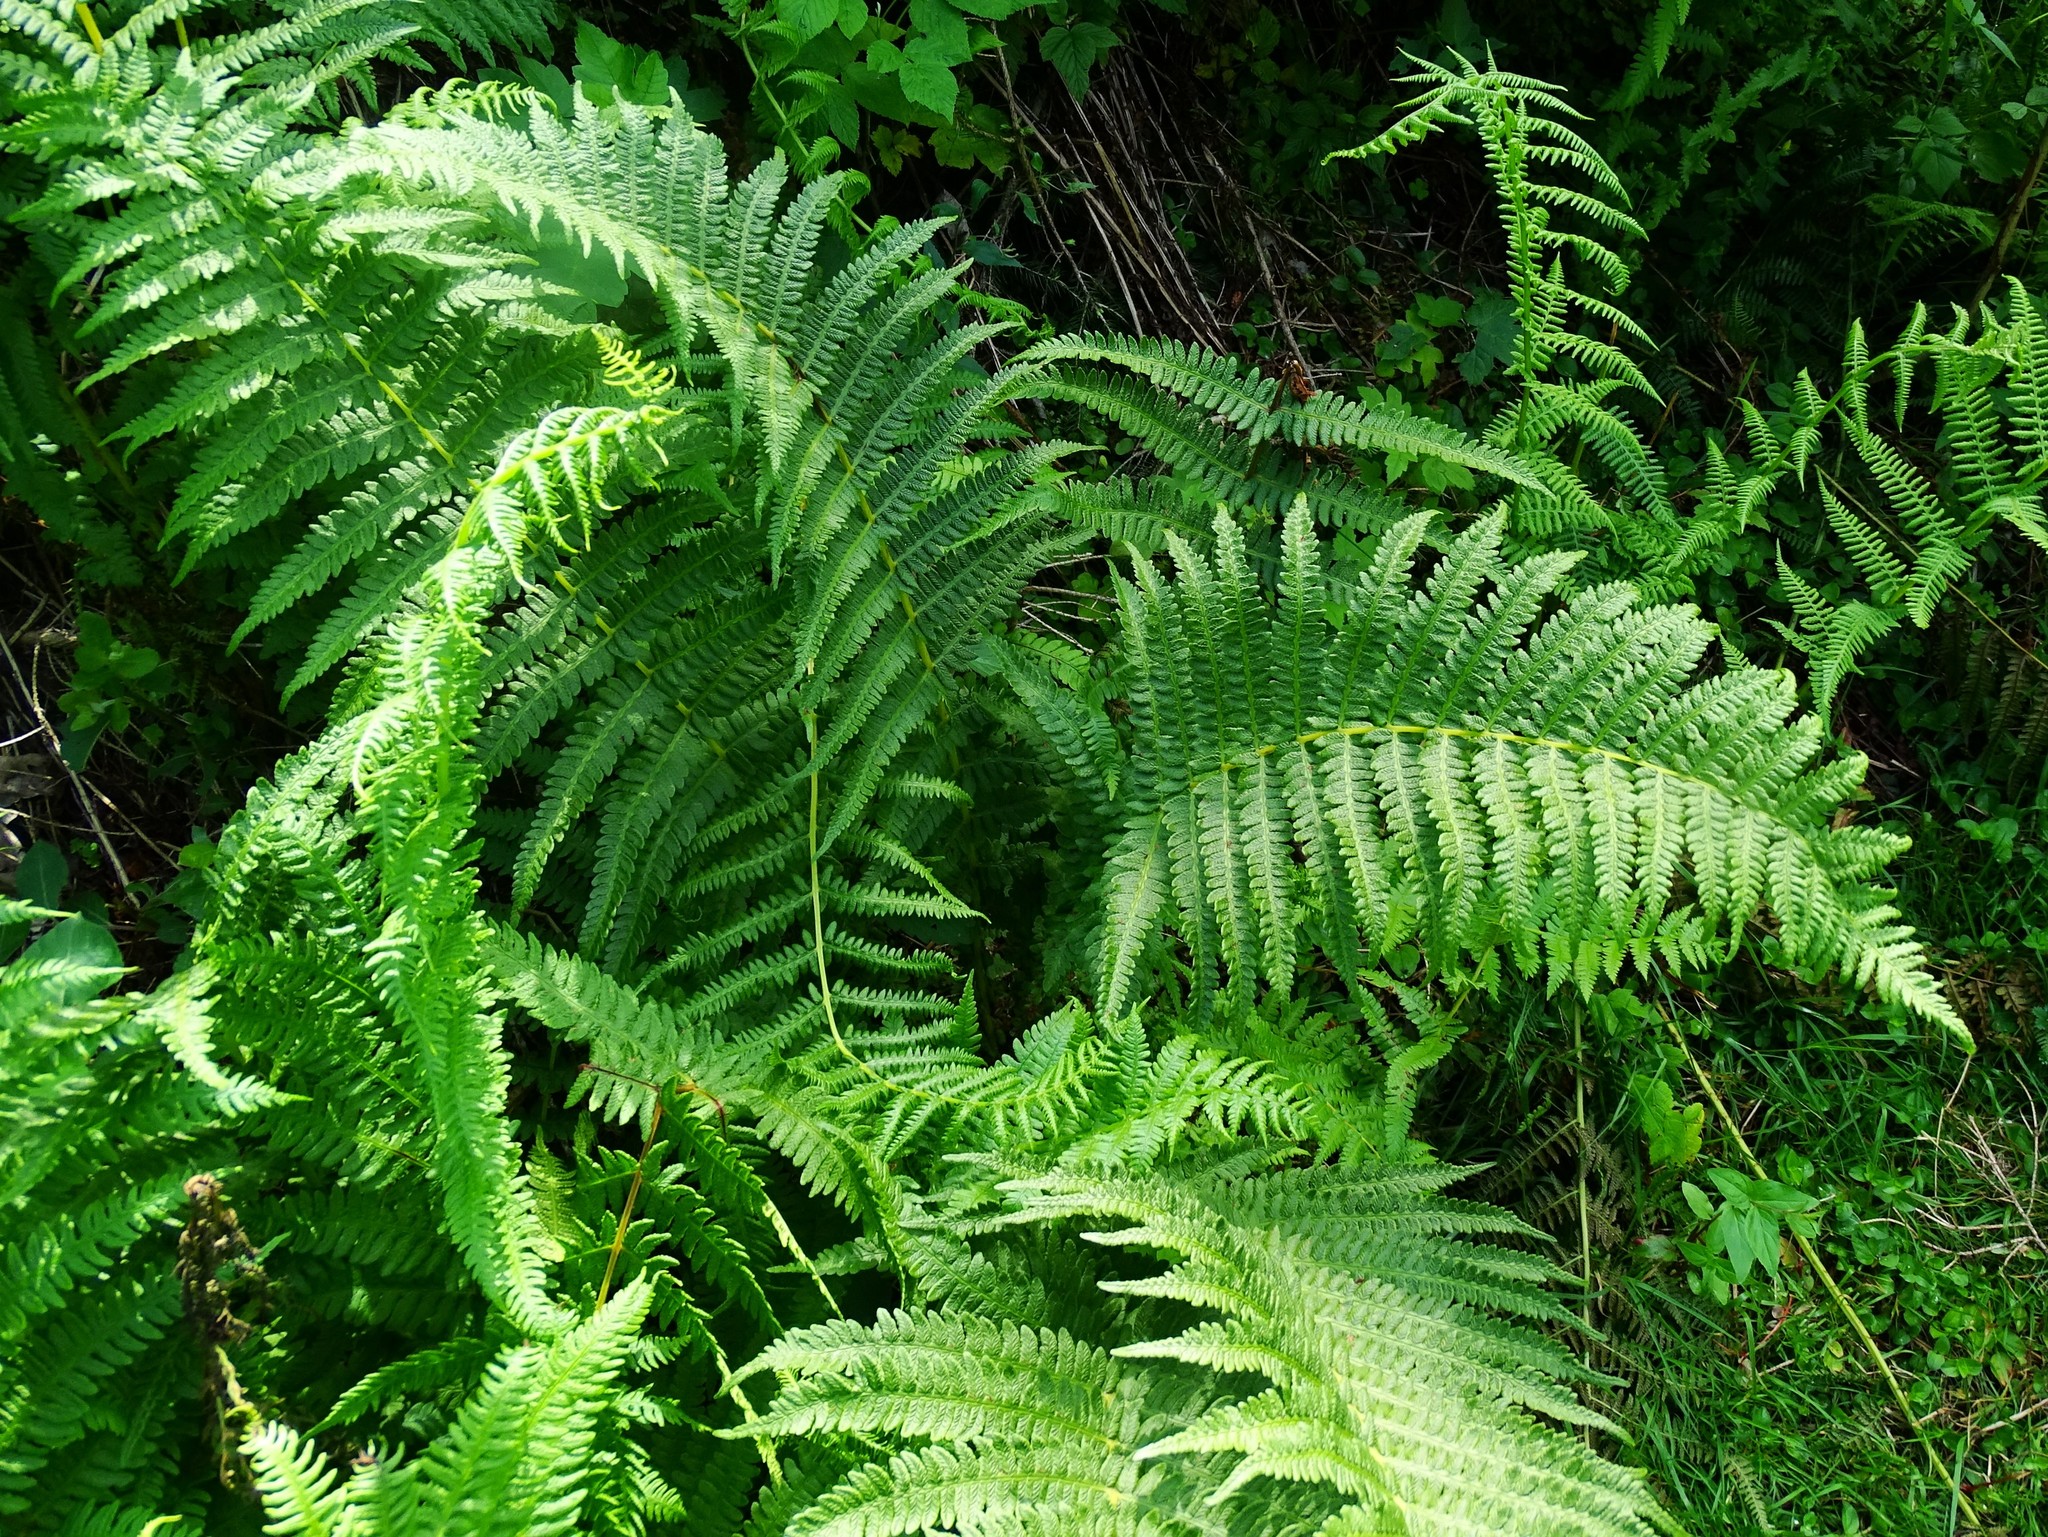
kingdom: Plantae
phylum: Tracheophyta
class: Polypodiopsida
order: Polypodiales
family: Thelypteridaceae
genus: Oreopteris
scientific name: Oreopteris limbosperma
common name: Lemon-scented fern
